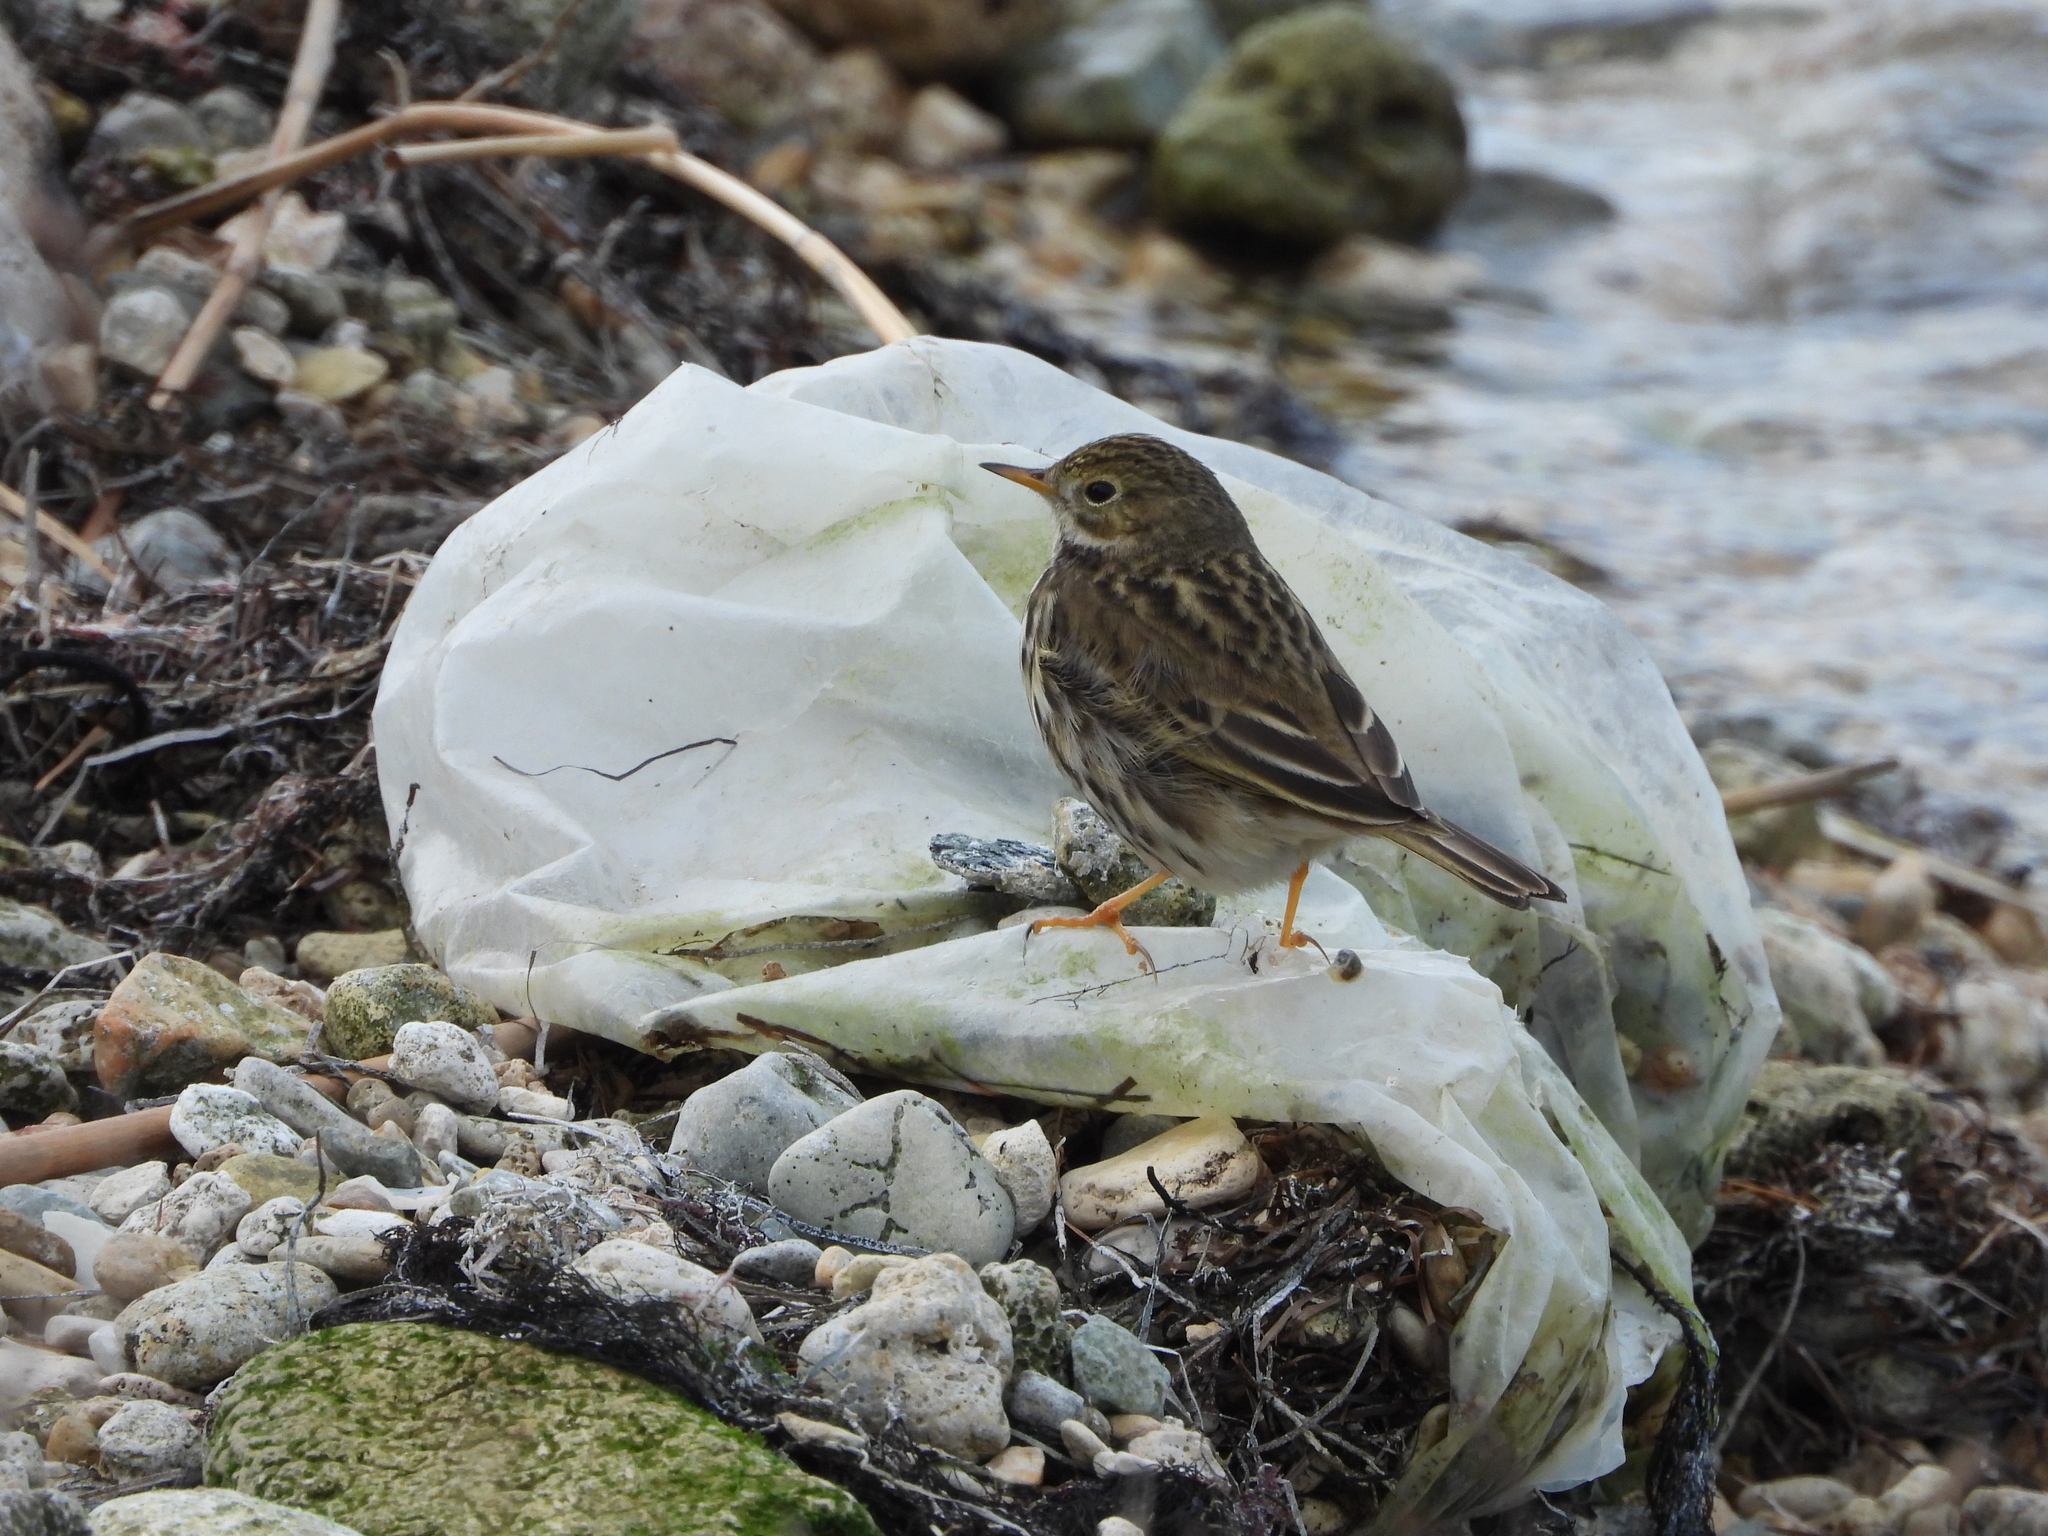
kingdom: Animalia
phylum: Chordata
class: Aves
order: Passeriformes
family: Motacillidae
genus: Anthus
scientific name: Anthus pratensis
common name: Meadow pipit
